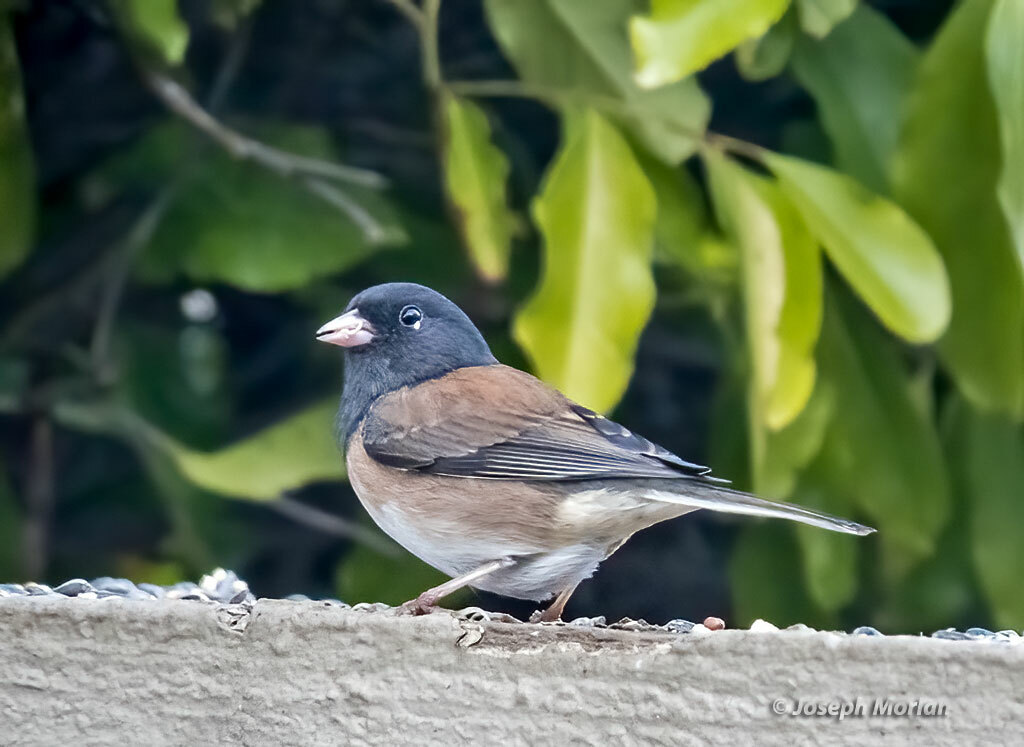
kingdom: Animalia
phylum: Chordata
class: Aves
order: Passeriformes
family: Passerellidae
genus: Junco
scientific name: Junco hyemalis
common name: Dark-eyed junco
